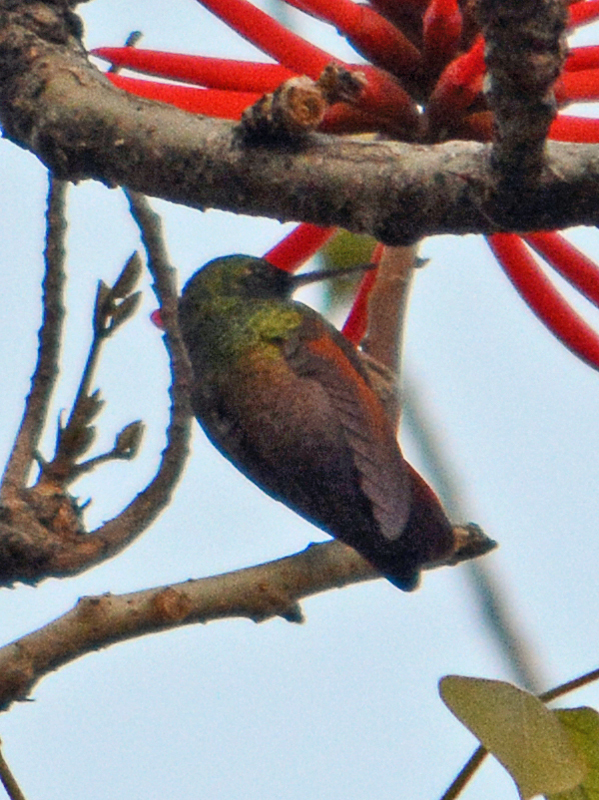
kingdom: Animalia
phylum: Chordata
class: Aves
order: Apodiformes
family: Trochilidae
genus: Saucerottia
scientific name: Saucerottia beryllina
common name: Berylline hummingbird
